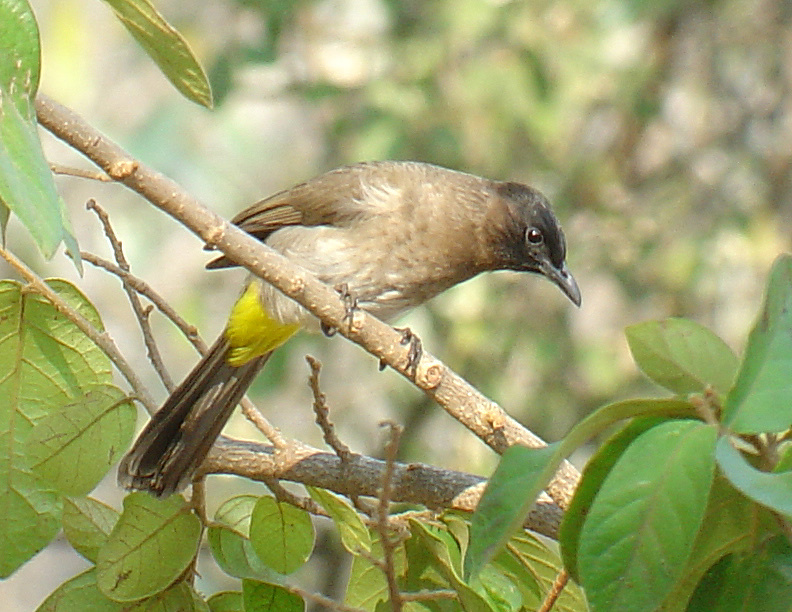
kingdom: Animalia
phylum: Chordata
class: Aves
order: Passeriformes
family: Pycnonotidae
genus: Pycnonotus
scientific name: Pycnonotus barbatus
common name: Common bulbul
